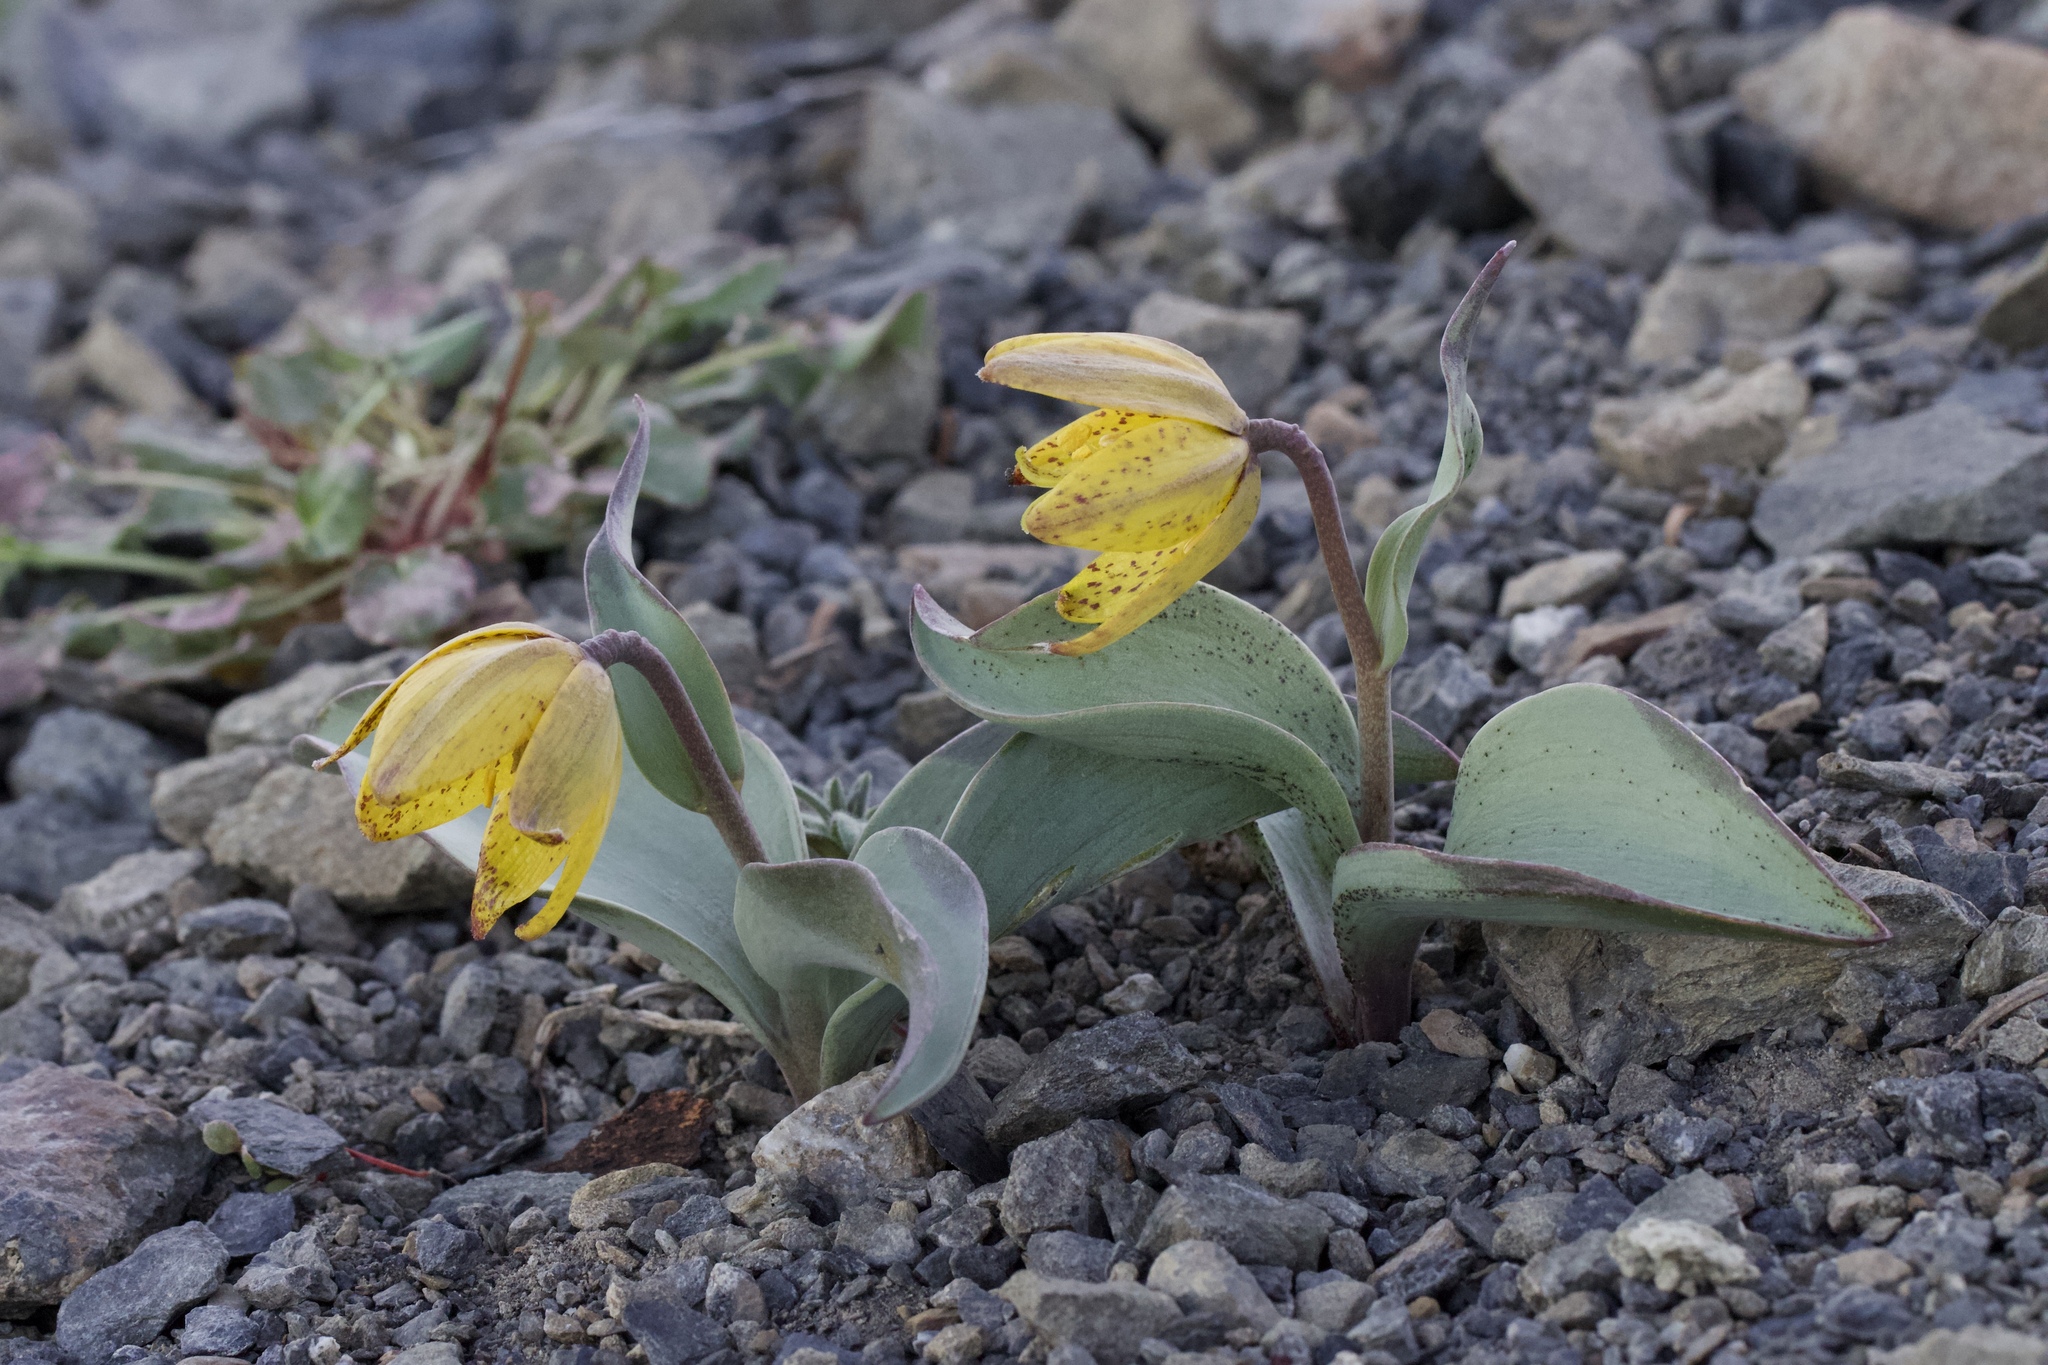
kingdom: Plantae
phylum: Tracheophyta
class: Liliopsida
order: Liliales
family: Liliaceae
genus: Fritillaria
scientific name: Fritillaria glauca
